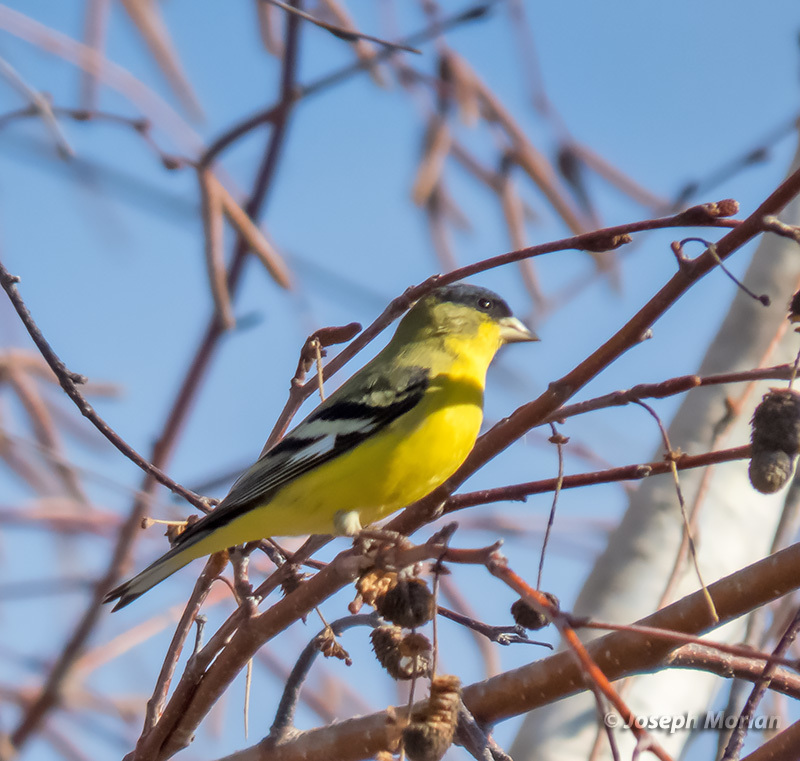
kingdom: Animalia
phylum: Chordata
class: Aves
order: Passeriformes
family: Fringillidae
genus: Spinus
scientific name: Spinus psaltria
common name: Lesser goldfinch
